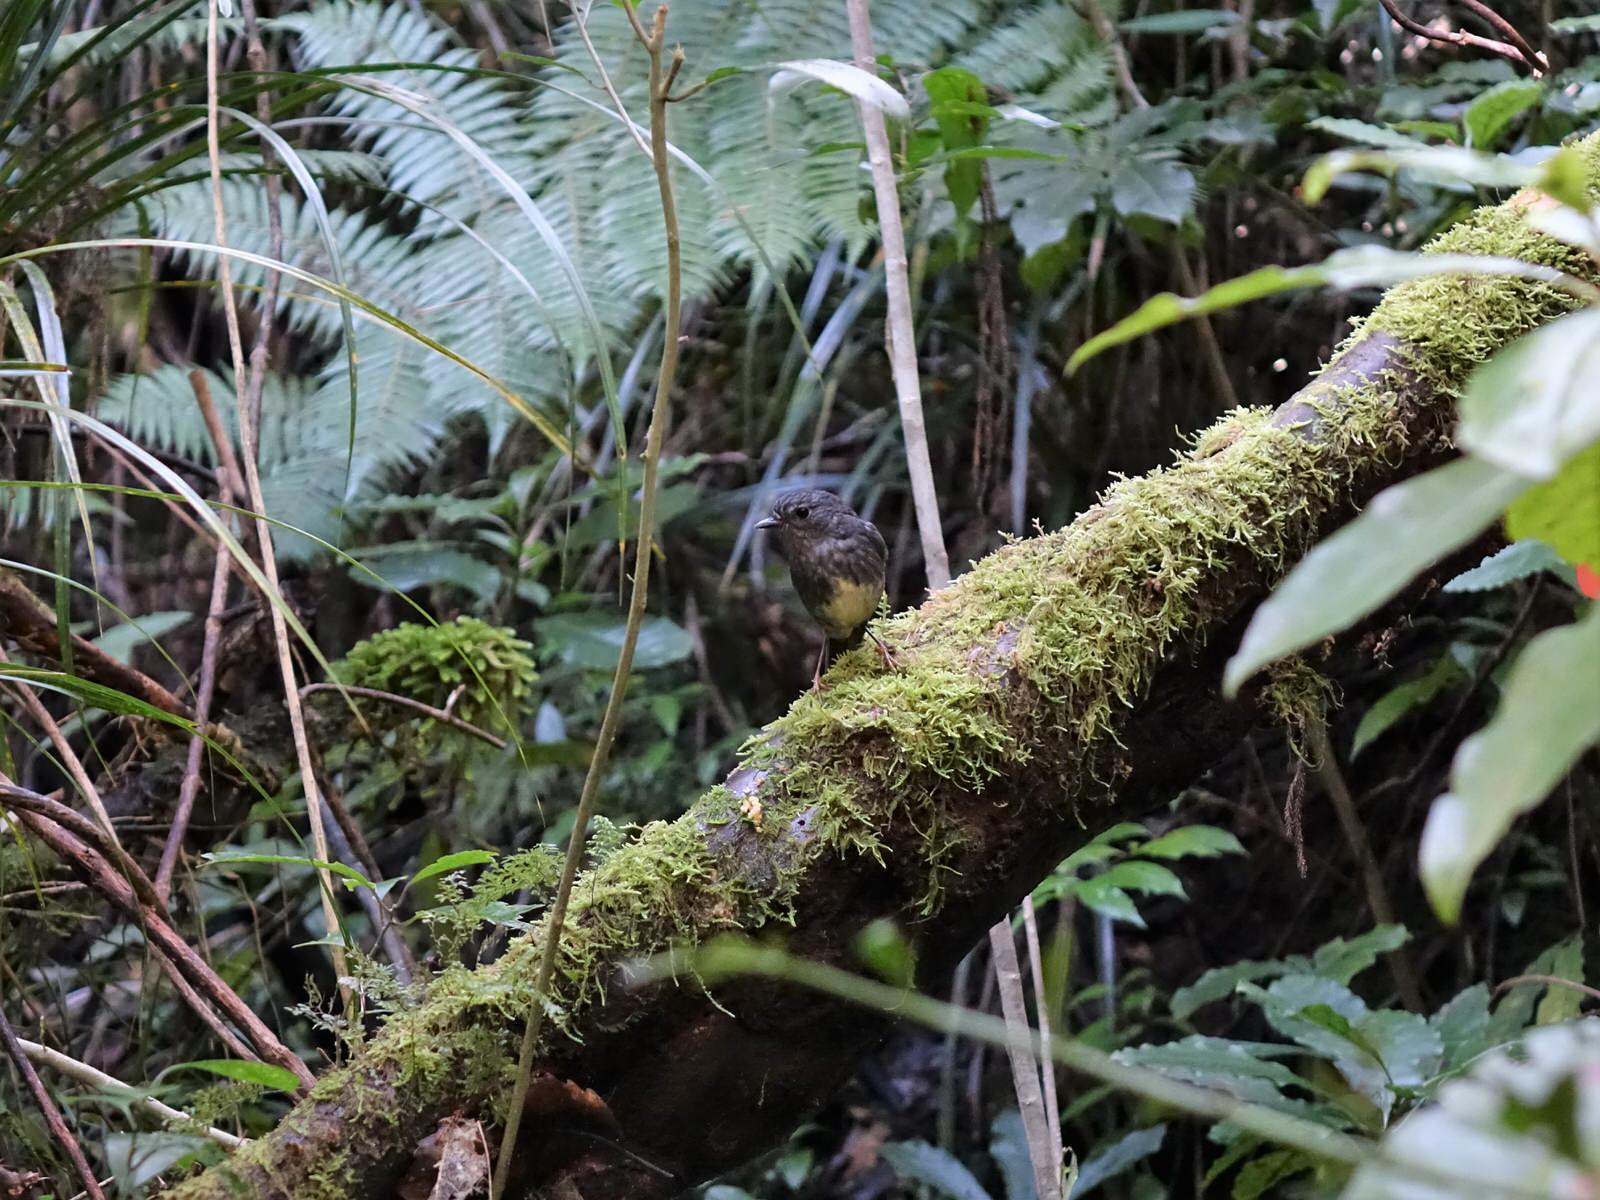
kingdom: Animalia
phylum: Chordata
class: Aves
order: Passeriformes
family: Petroicidae
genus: Petroica
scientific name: Petroica australis
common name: New zealand robin
